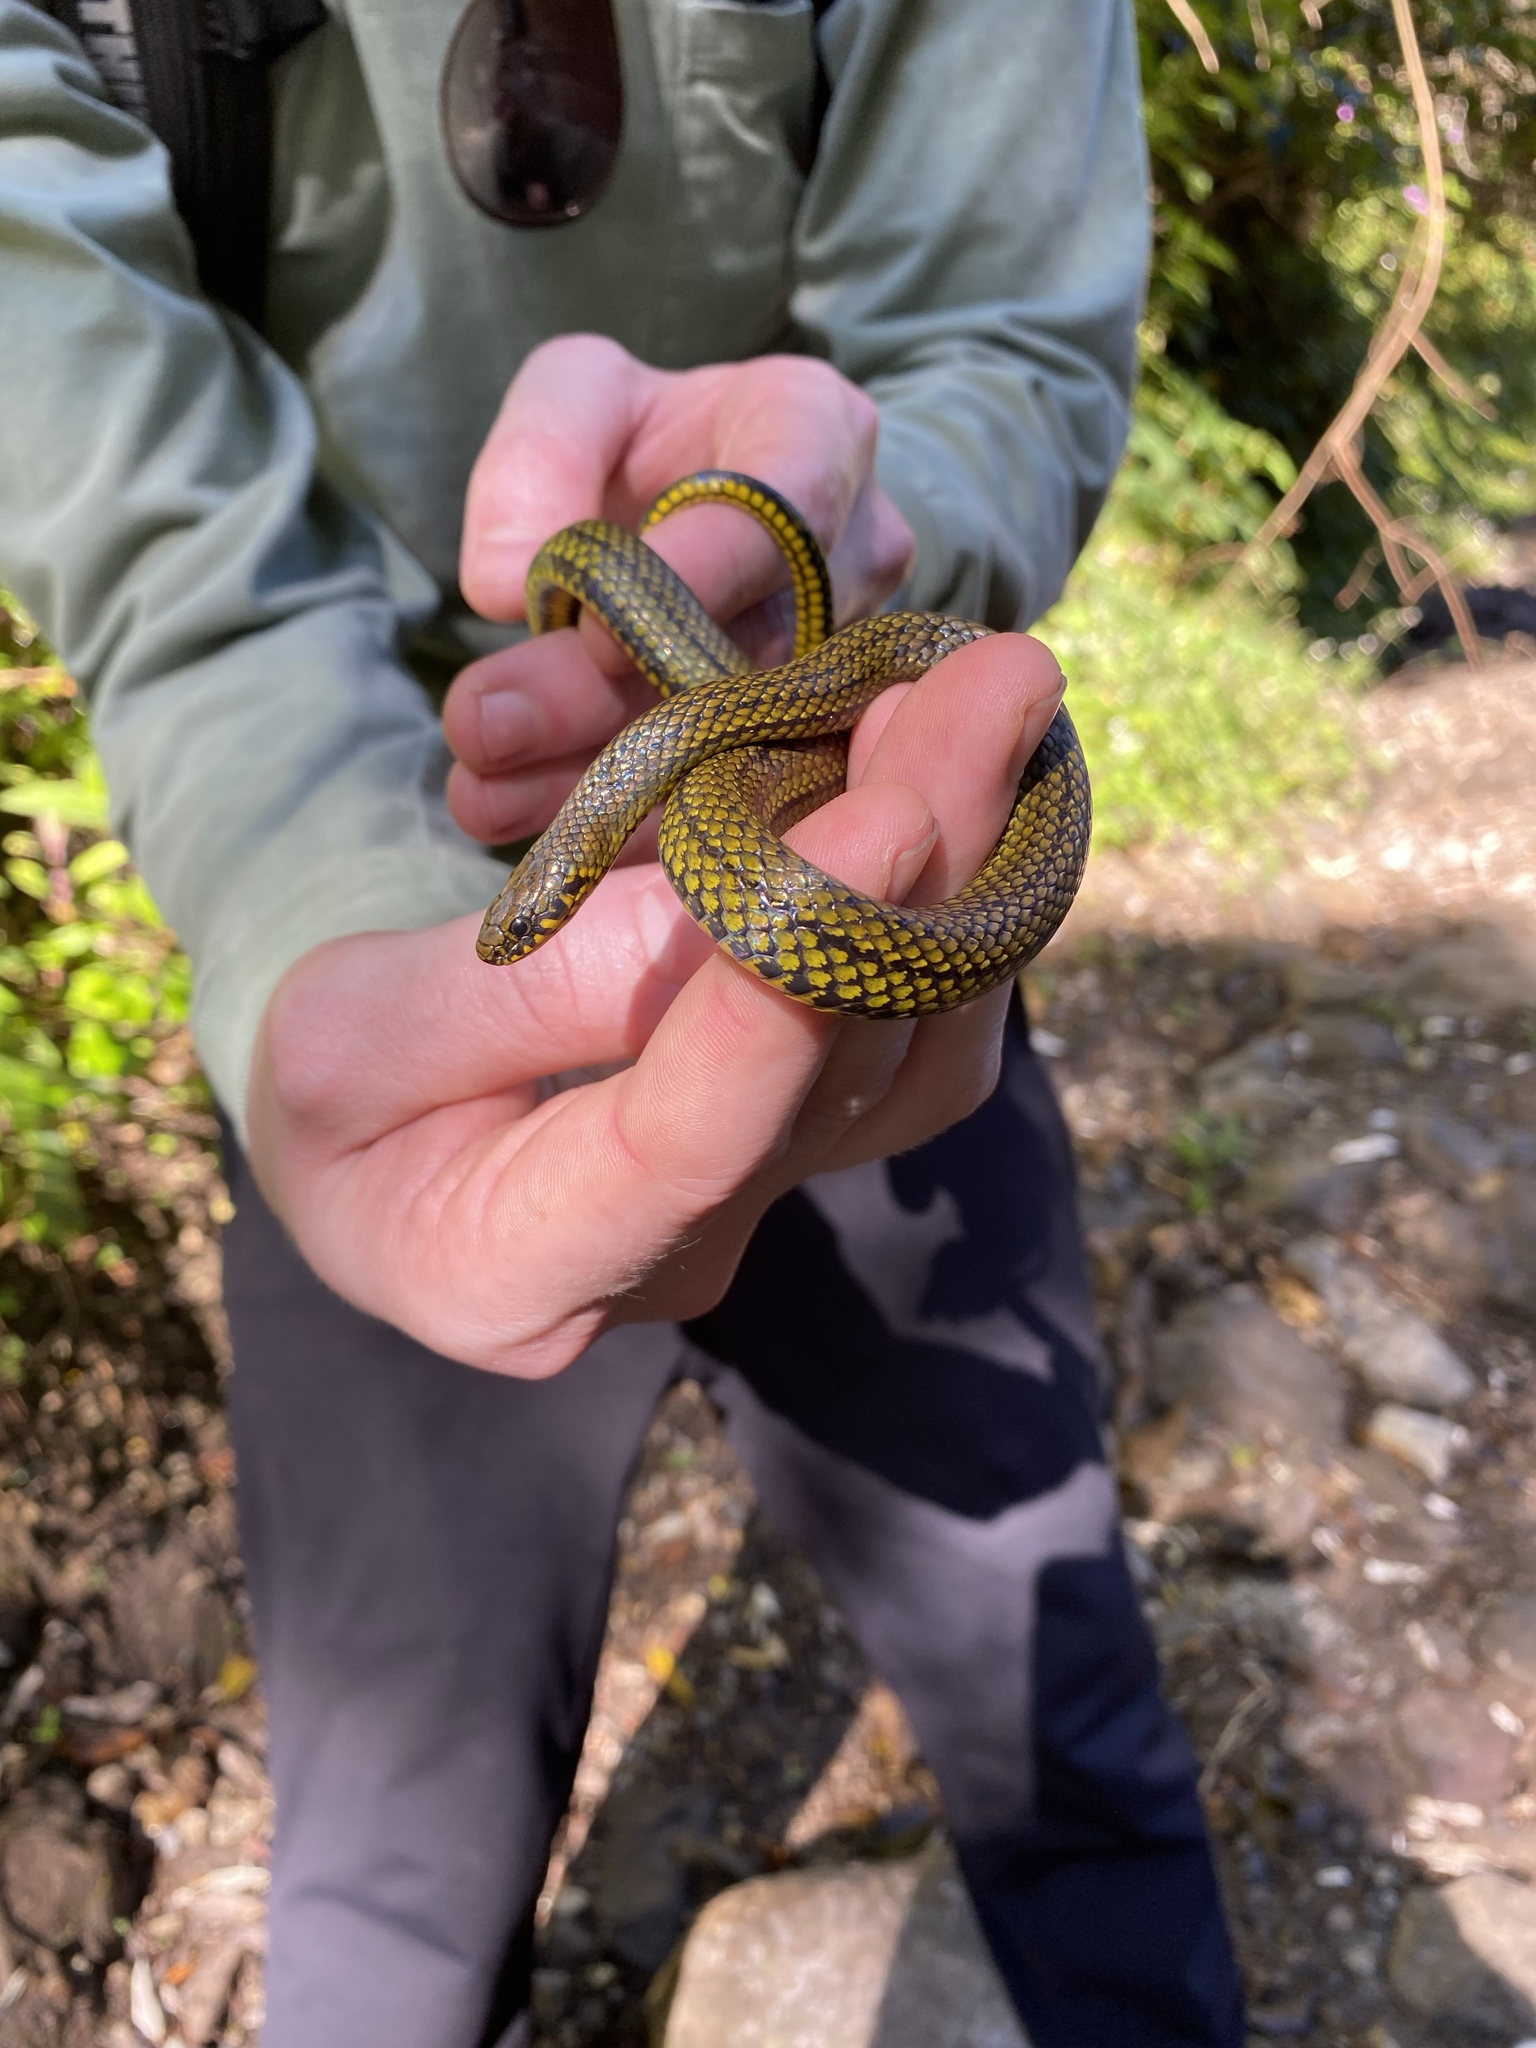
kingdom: Animalia
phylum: Chordata
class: Squamata
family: Colubridae
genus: Rhadinaea
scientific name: Rhadinaea calligaster
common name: Thick graceful brown snake
